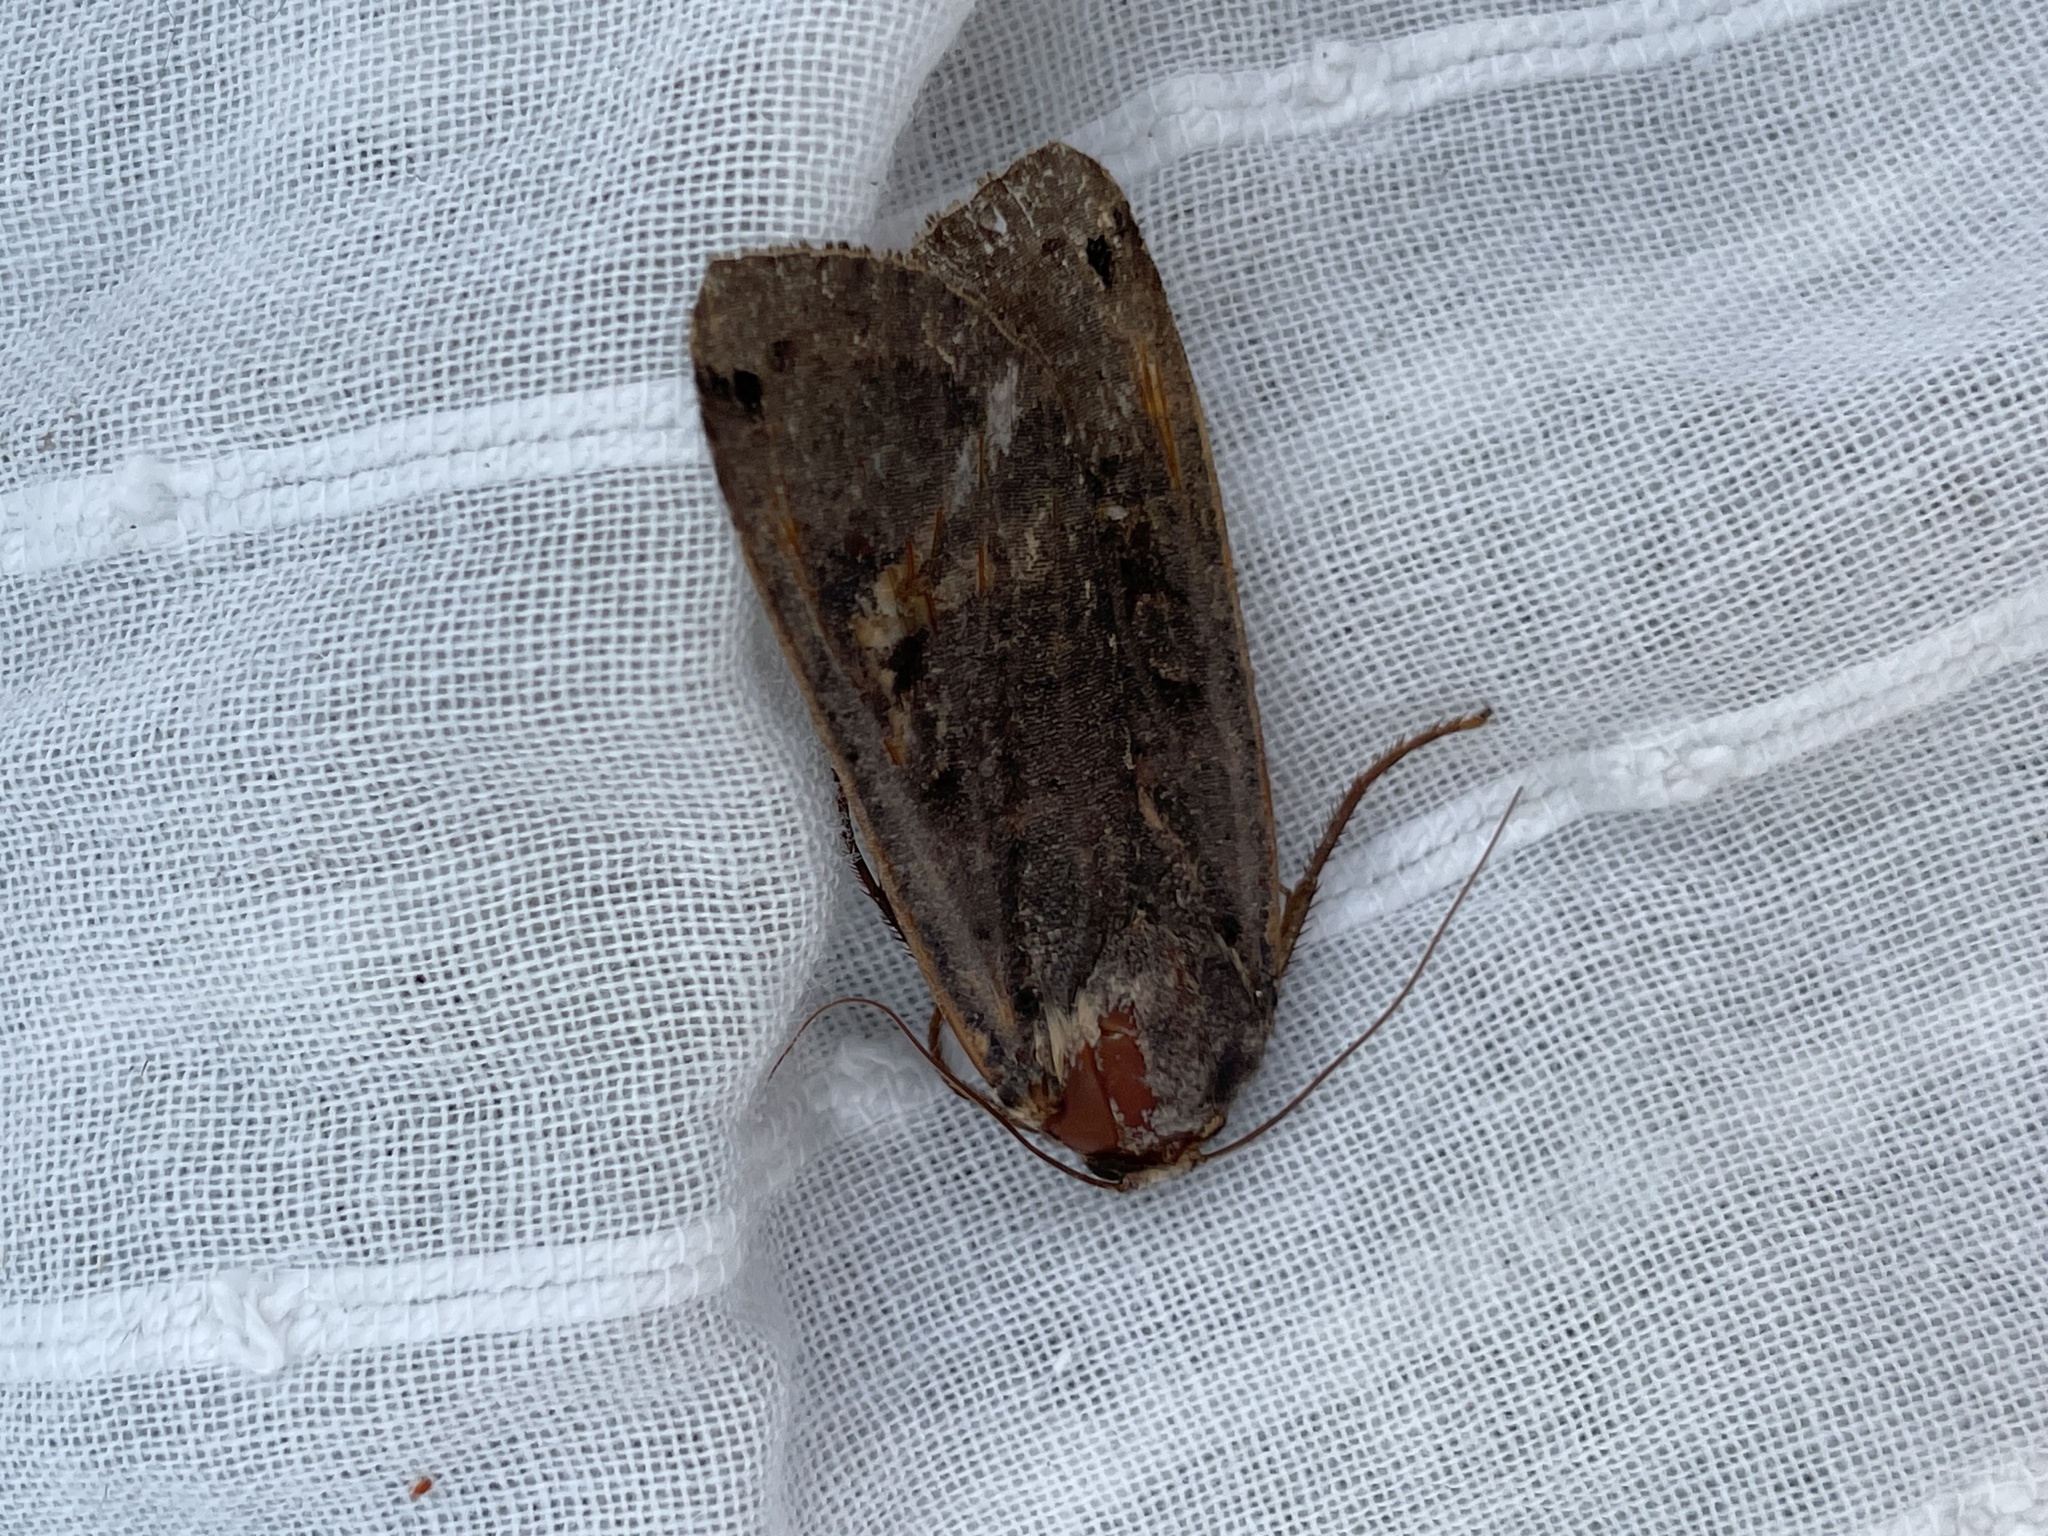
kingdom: Animalia
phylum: Arthropoda
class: Insecta
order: Lepidoptera
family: Noctuidae
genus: Noctua
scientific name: Noctua pronuba
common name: Large yellow underwing
